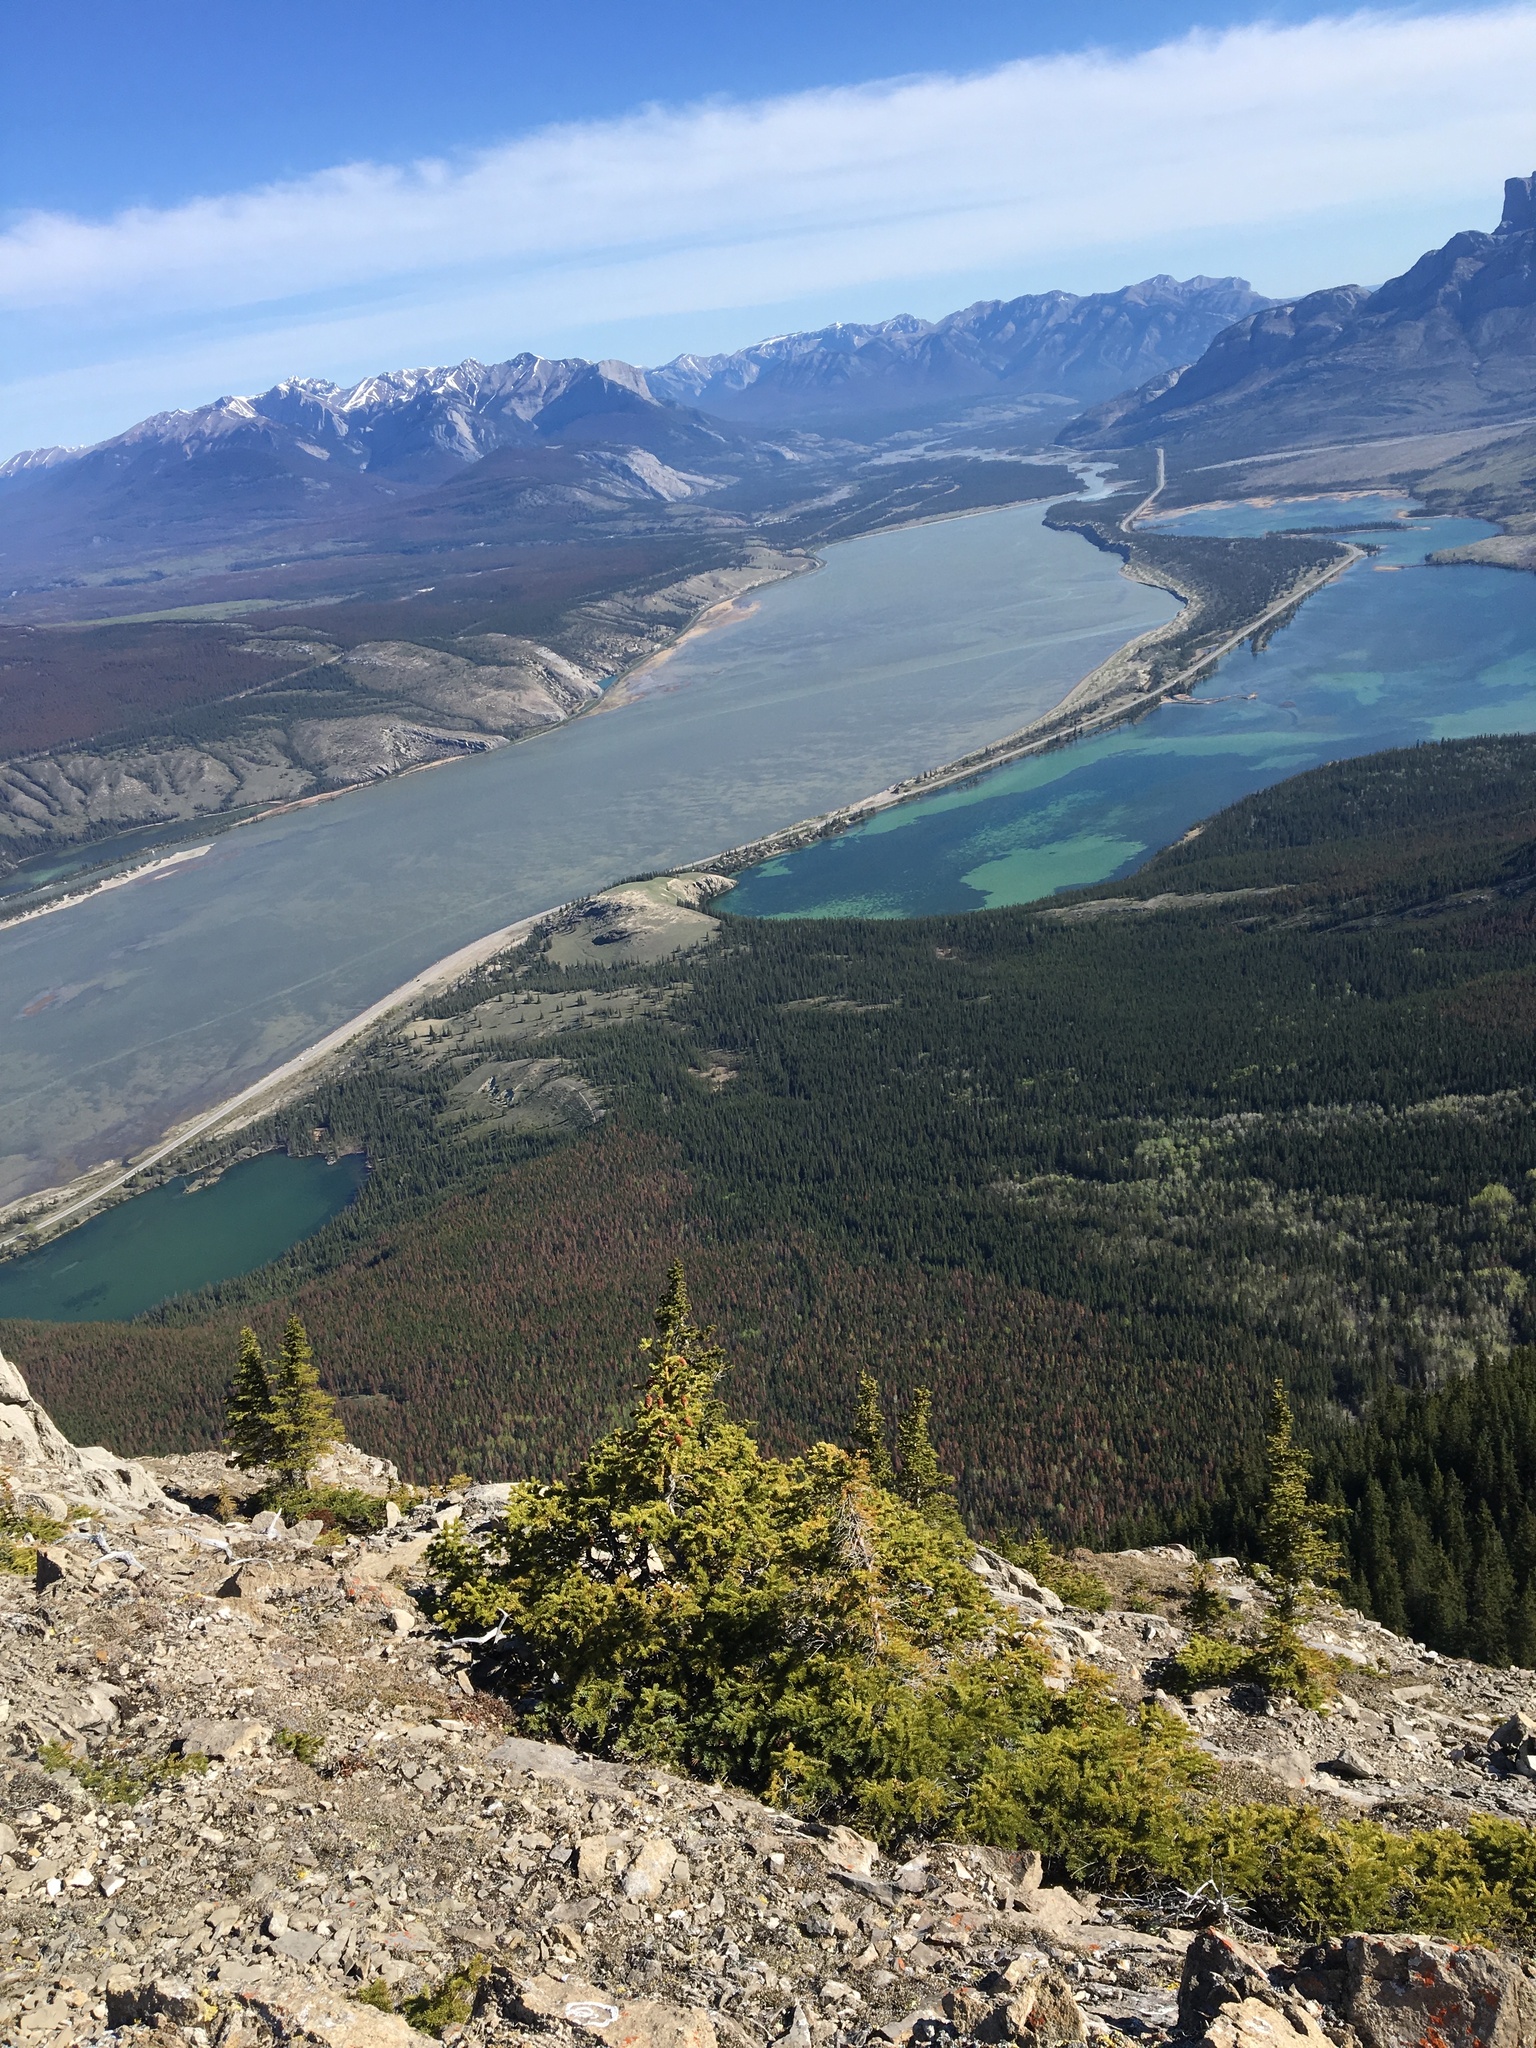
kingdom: Plantae
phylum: Tracheophyta
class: Pinopsida
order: Pinales
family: Pinaceae
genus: Picea
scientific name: Picea glauca
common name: White spruce
